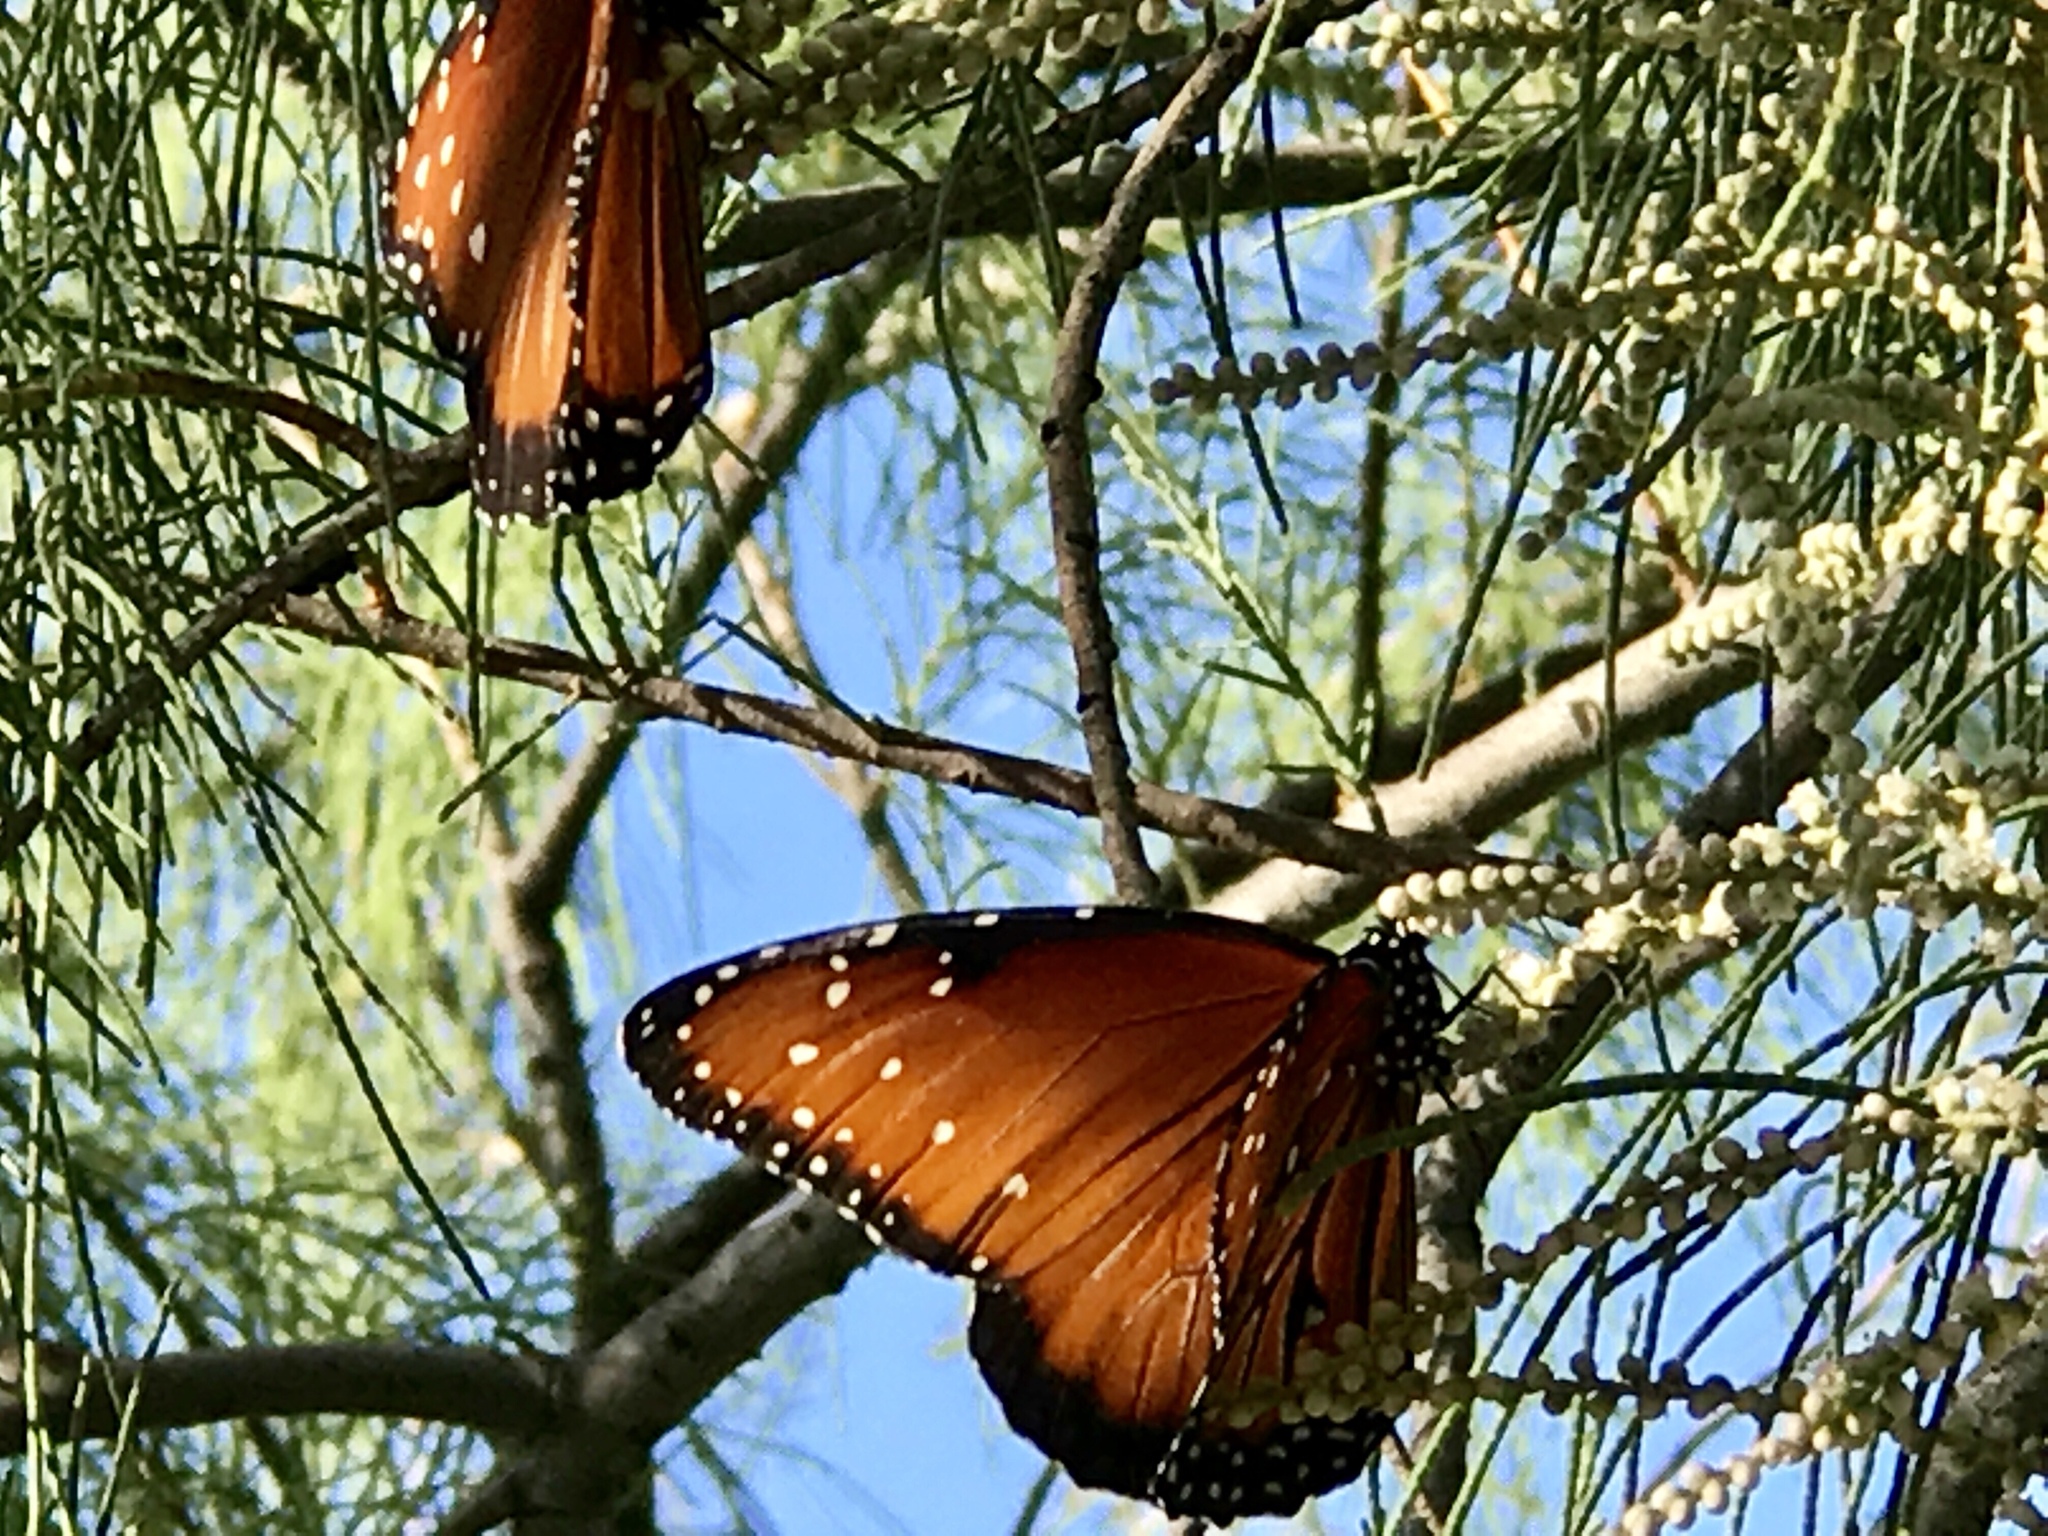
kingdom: Animalia
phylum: Arthropoda
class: Insecta
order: Lepidoptera
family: Nymphalidae
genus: Danaus
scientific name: Danaus gilippus
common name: Queen
